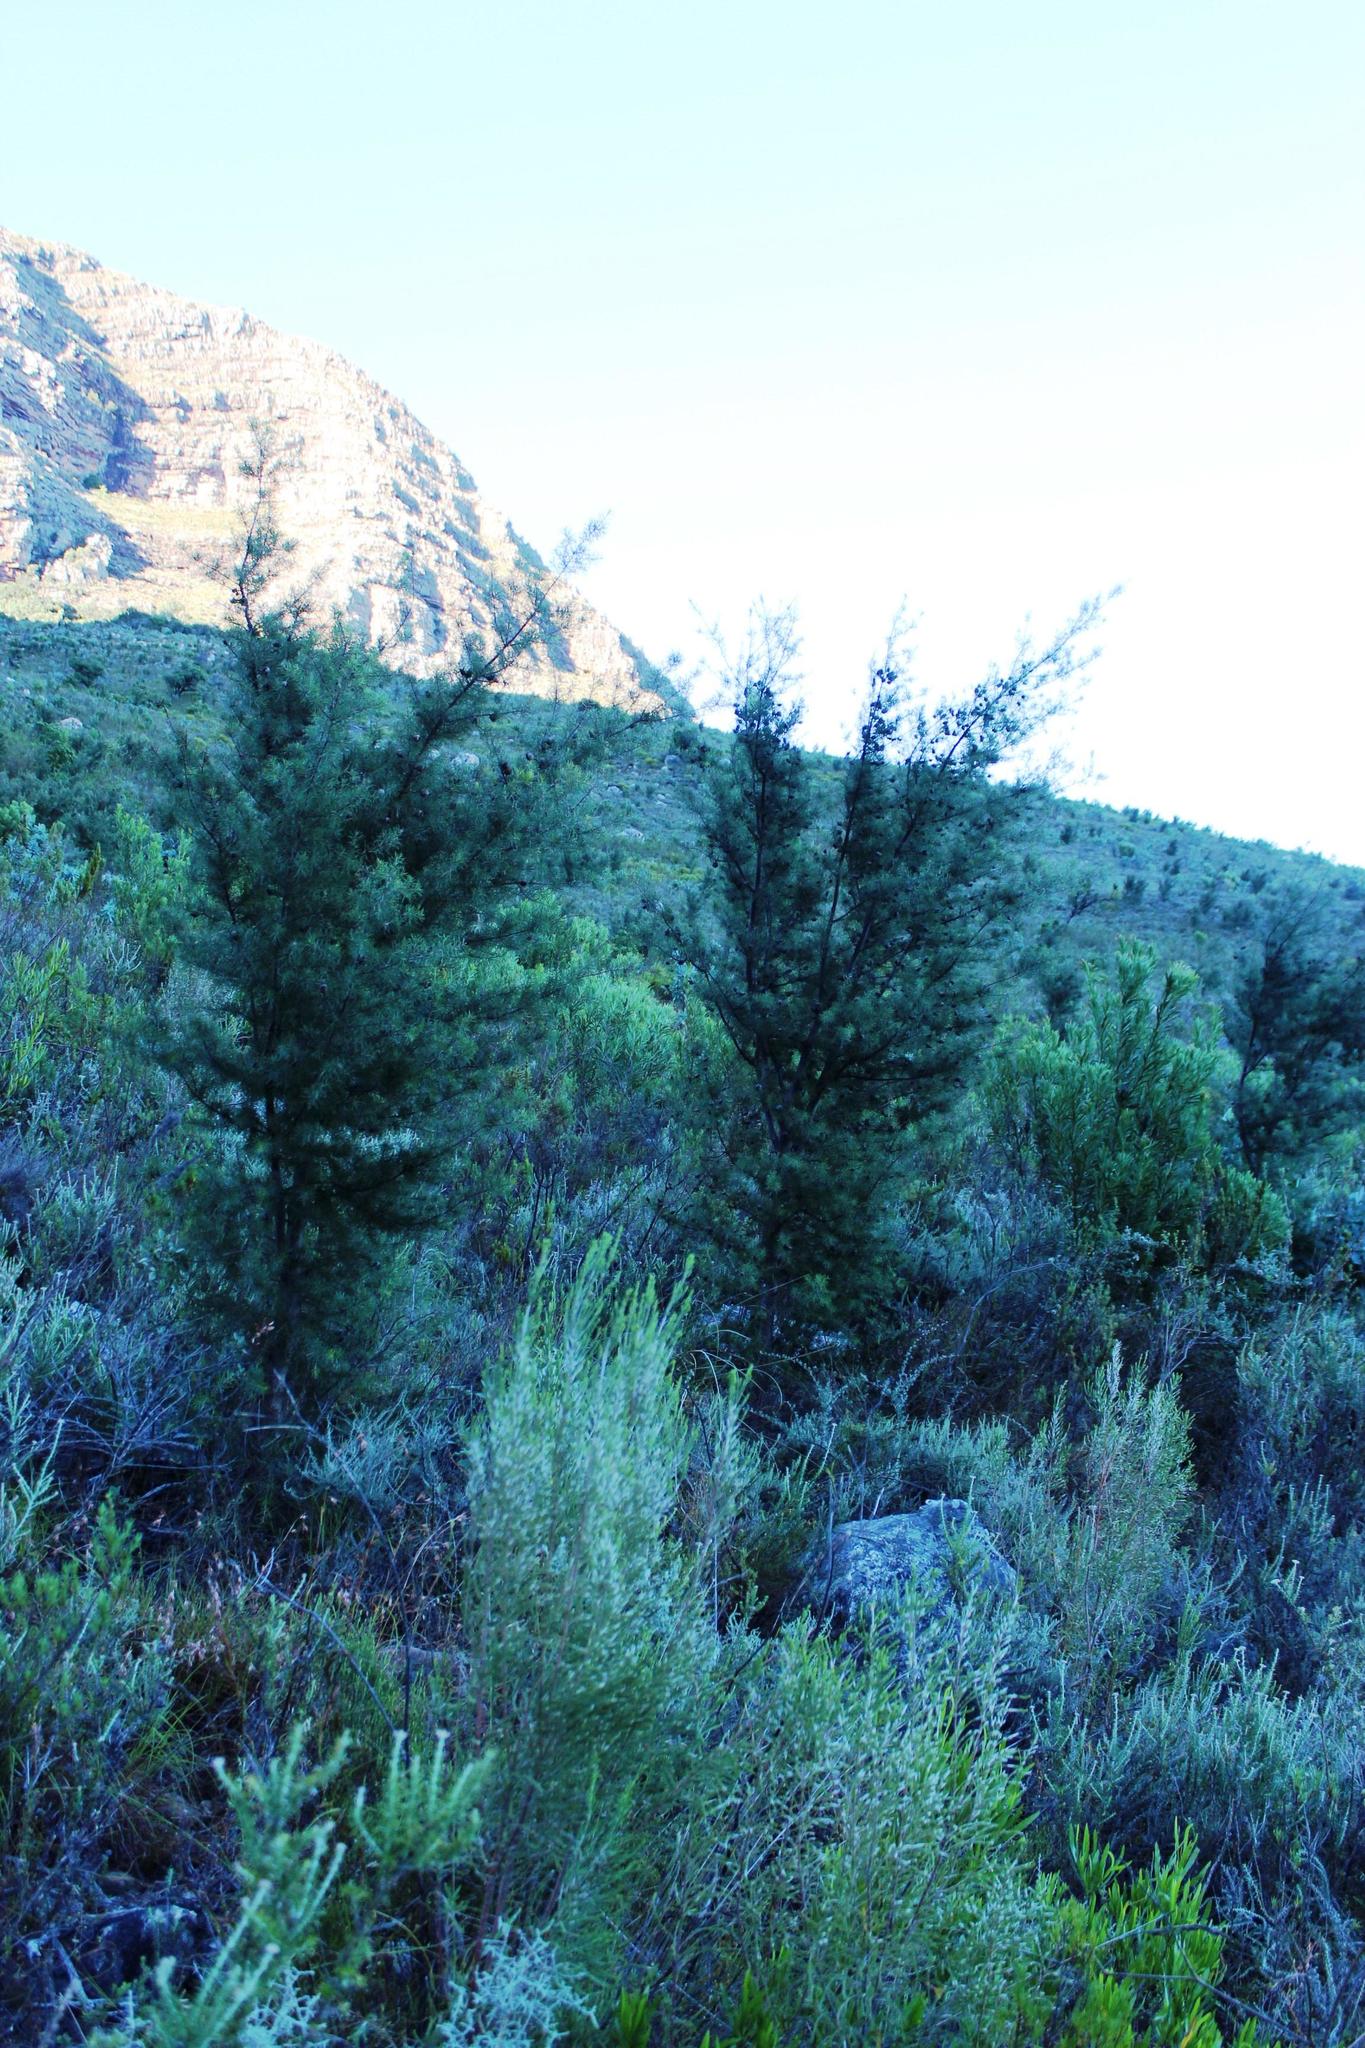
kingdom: Plantae
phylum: Tracheophyta
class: Magnoliopsida
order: Proteales
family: Proteaceae
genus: Hakea
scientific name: Hakea sericea
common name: Needle bush
